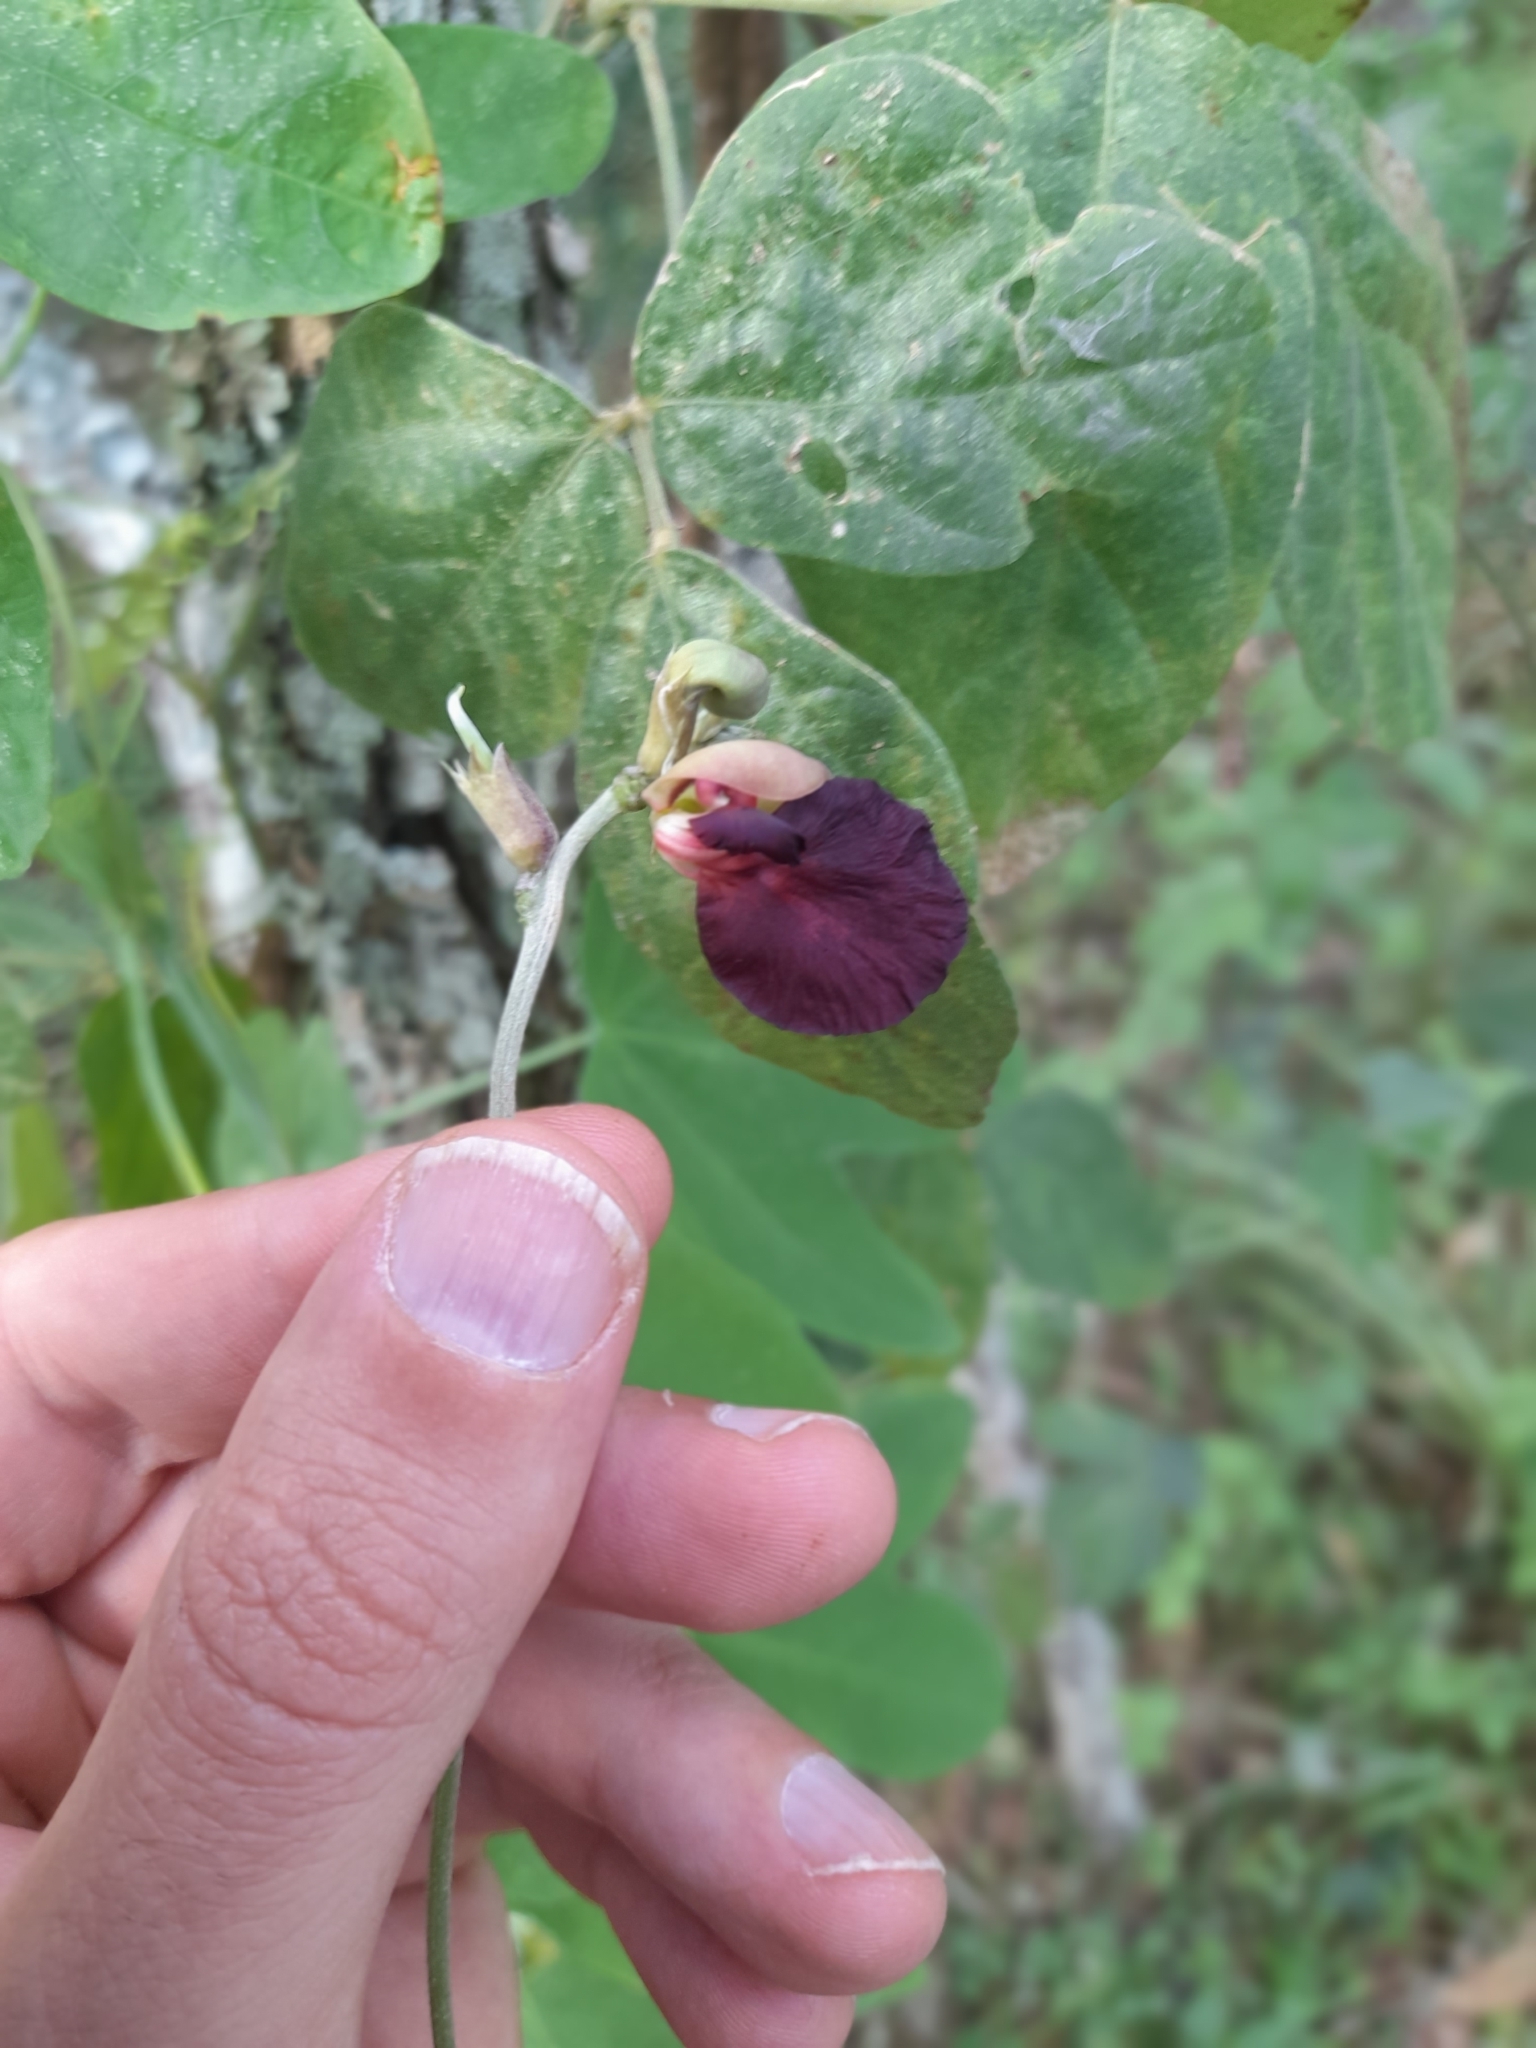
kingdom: Plantae
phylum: Tracheophyta
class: Magnoliopsida
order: Fabales
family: Fabaceae
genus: Macroptilium
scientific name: Macroptilium atropurpureum
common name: Purple bushbean
